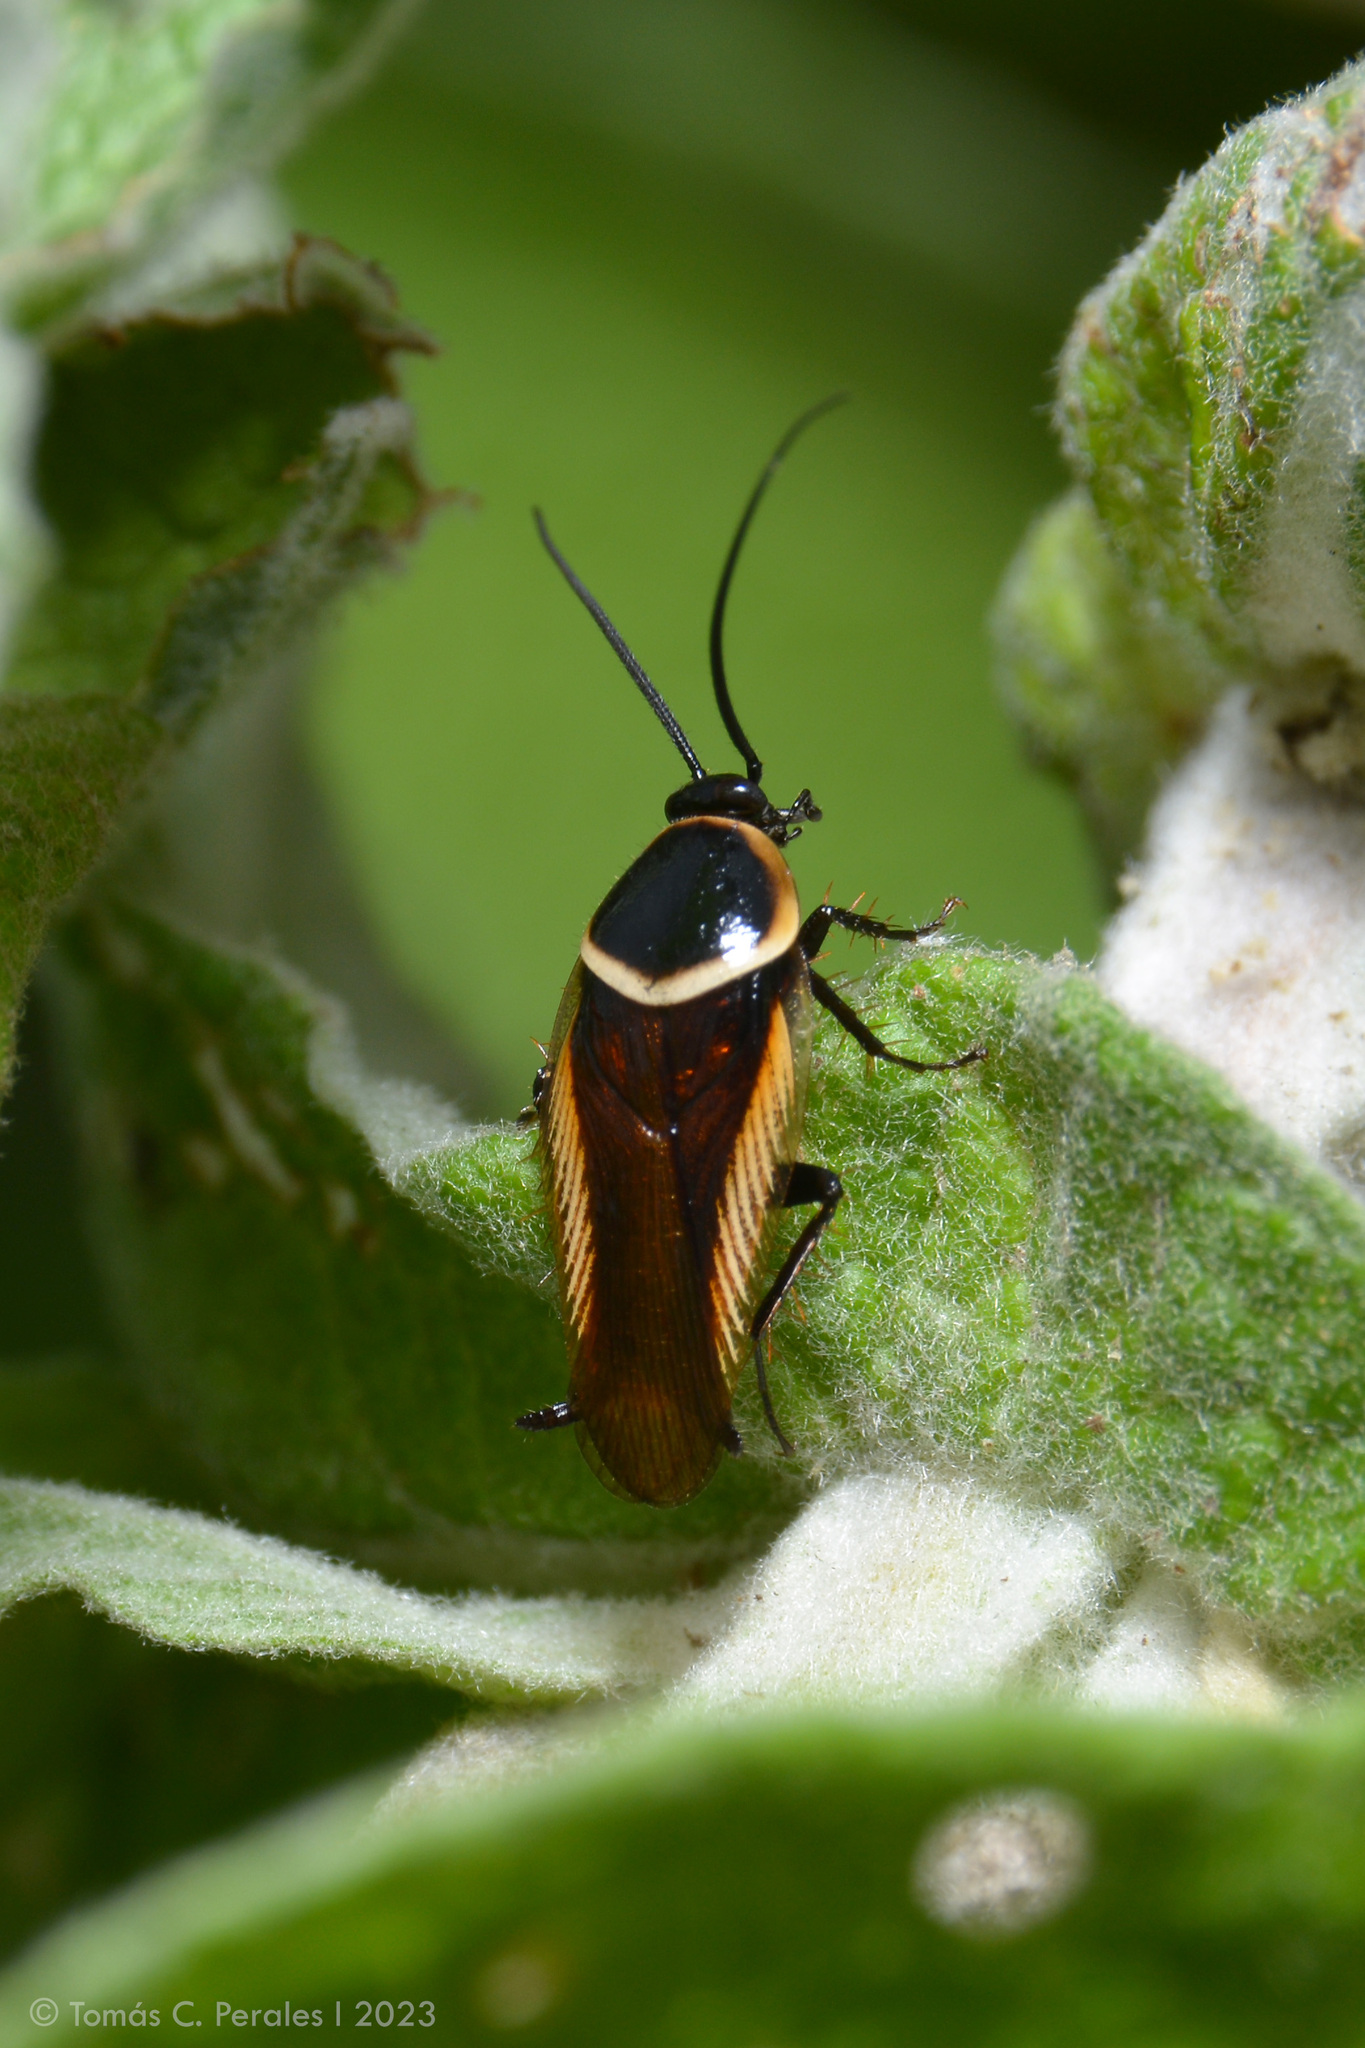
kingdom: Animalia
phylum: Arthropoda
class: Insecta
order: Blattodea
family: Ectobiidae
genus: Pseudomops
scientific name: Pseudomops neglectus
